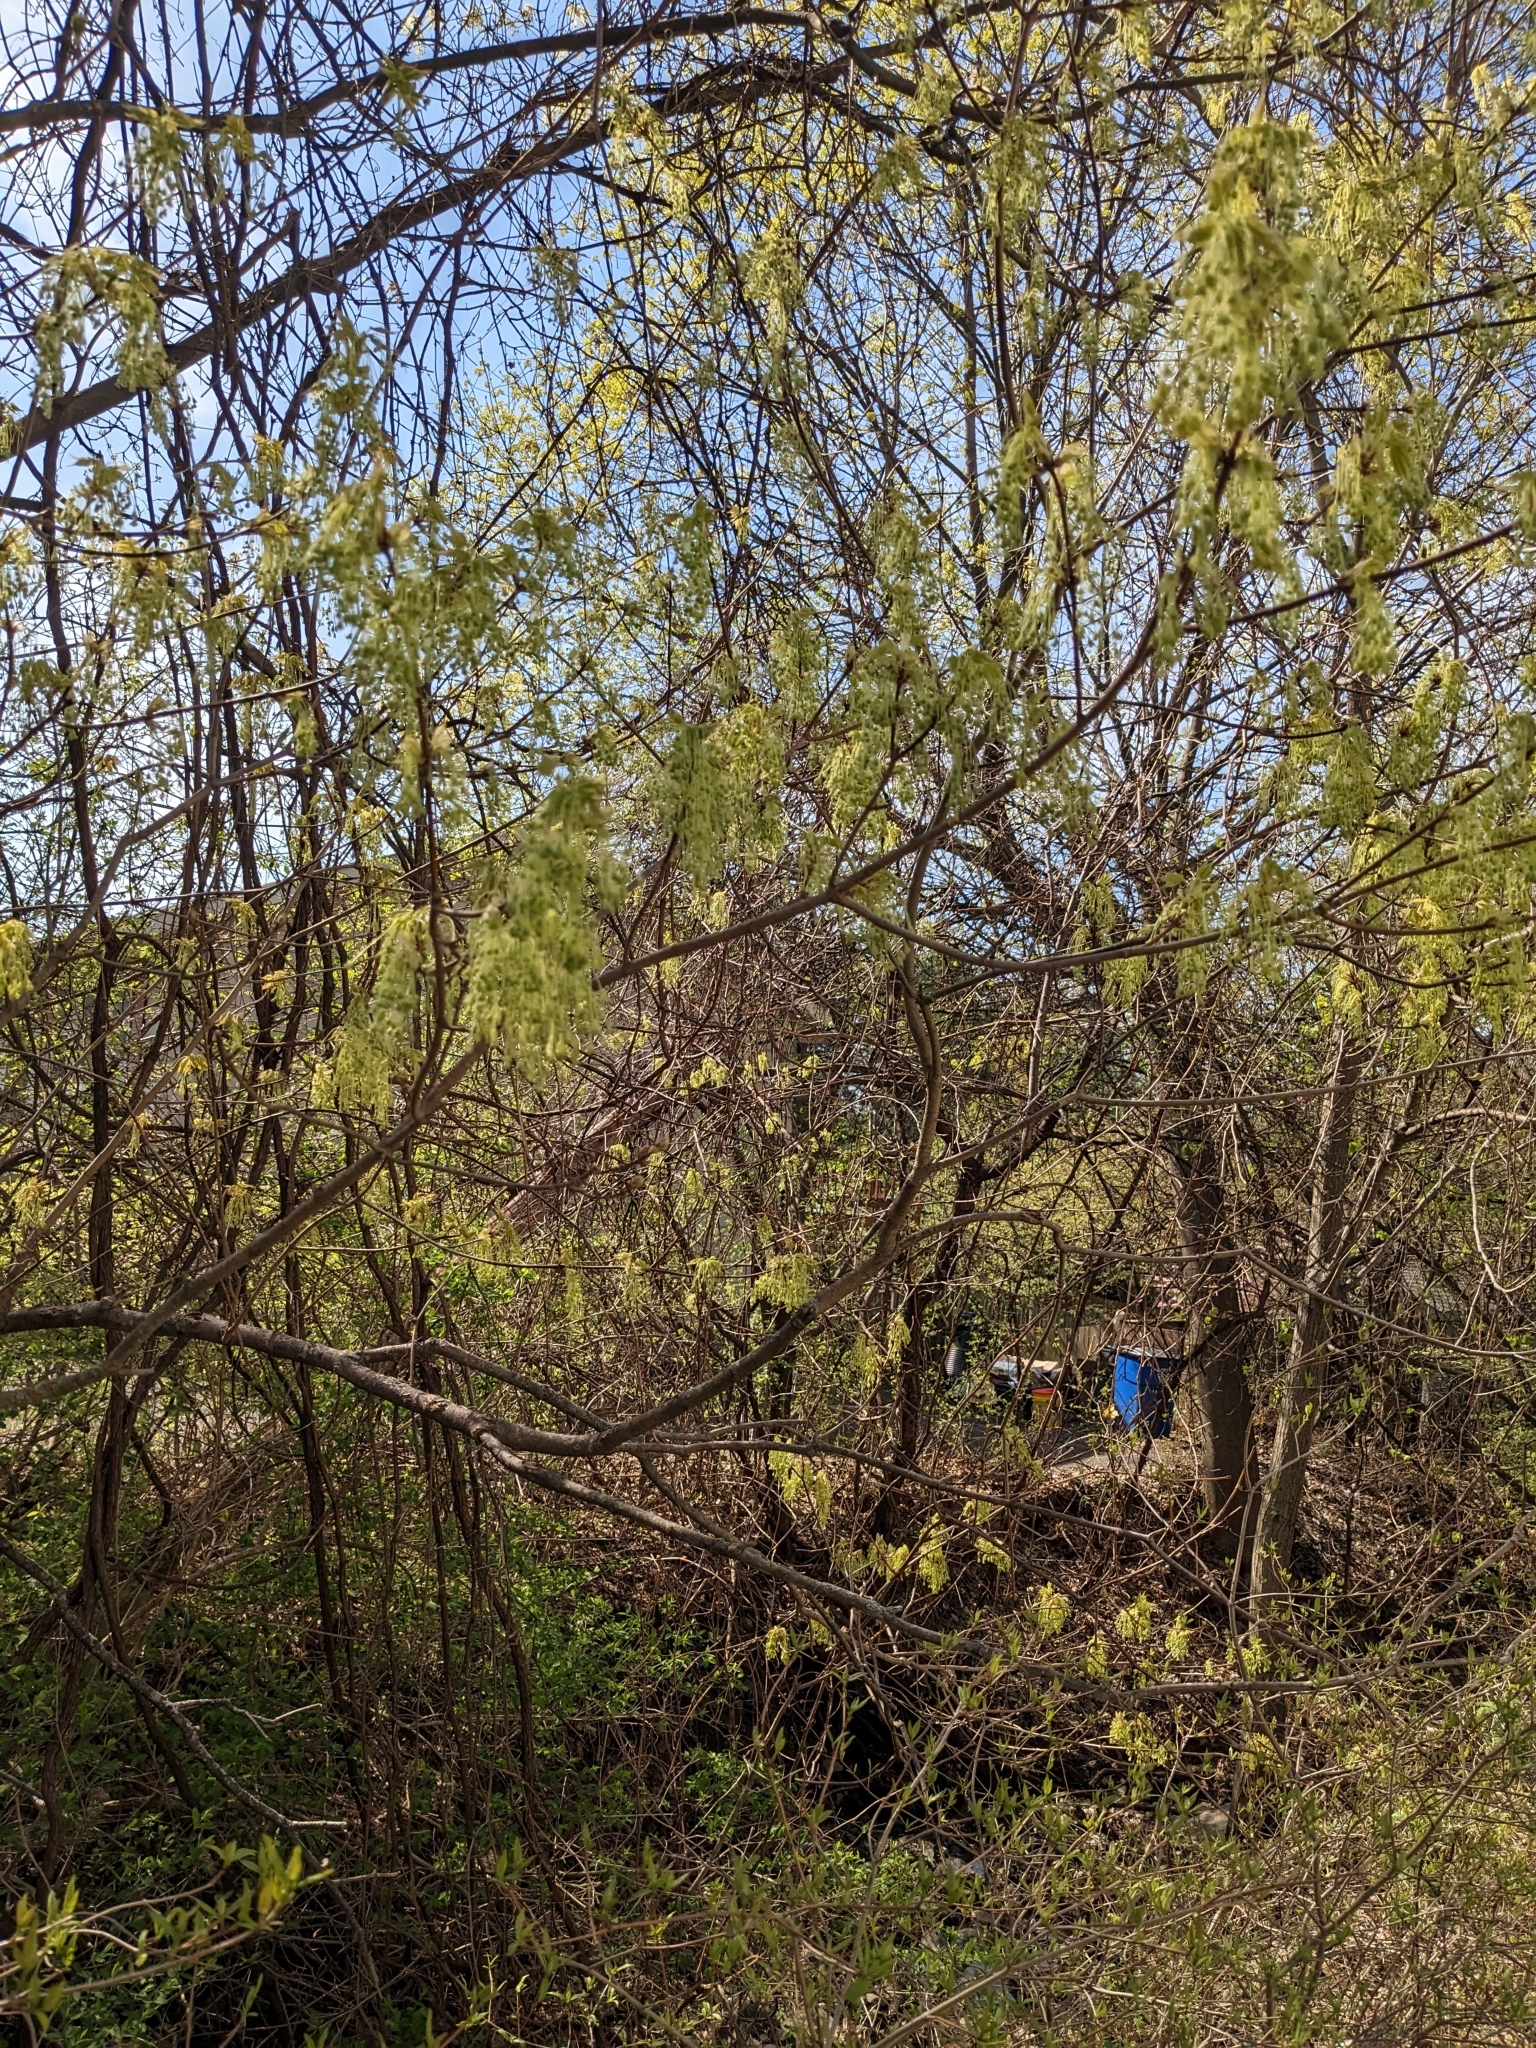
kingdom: Plantae
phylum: Tracheophyta
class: Magnoliopsida
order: Sapindales
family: Sapindaceae
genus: Acer
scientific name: Acer saccharum
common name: Sugar maple
